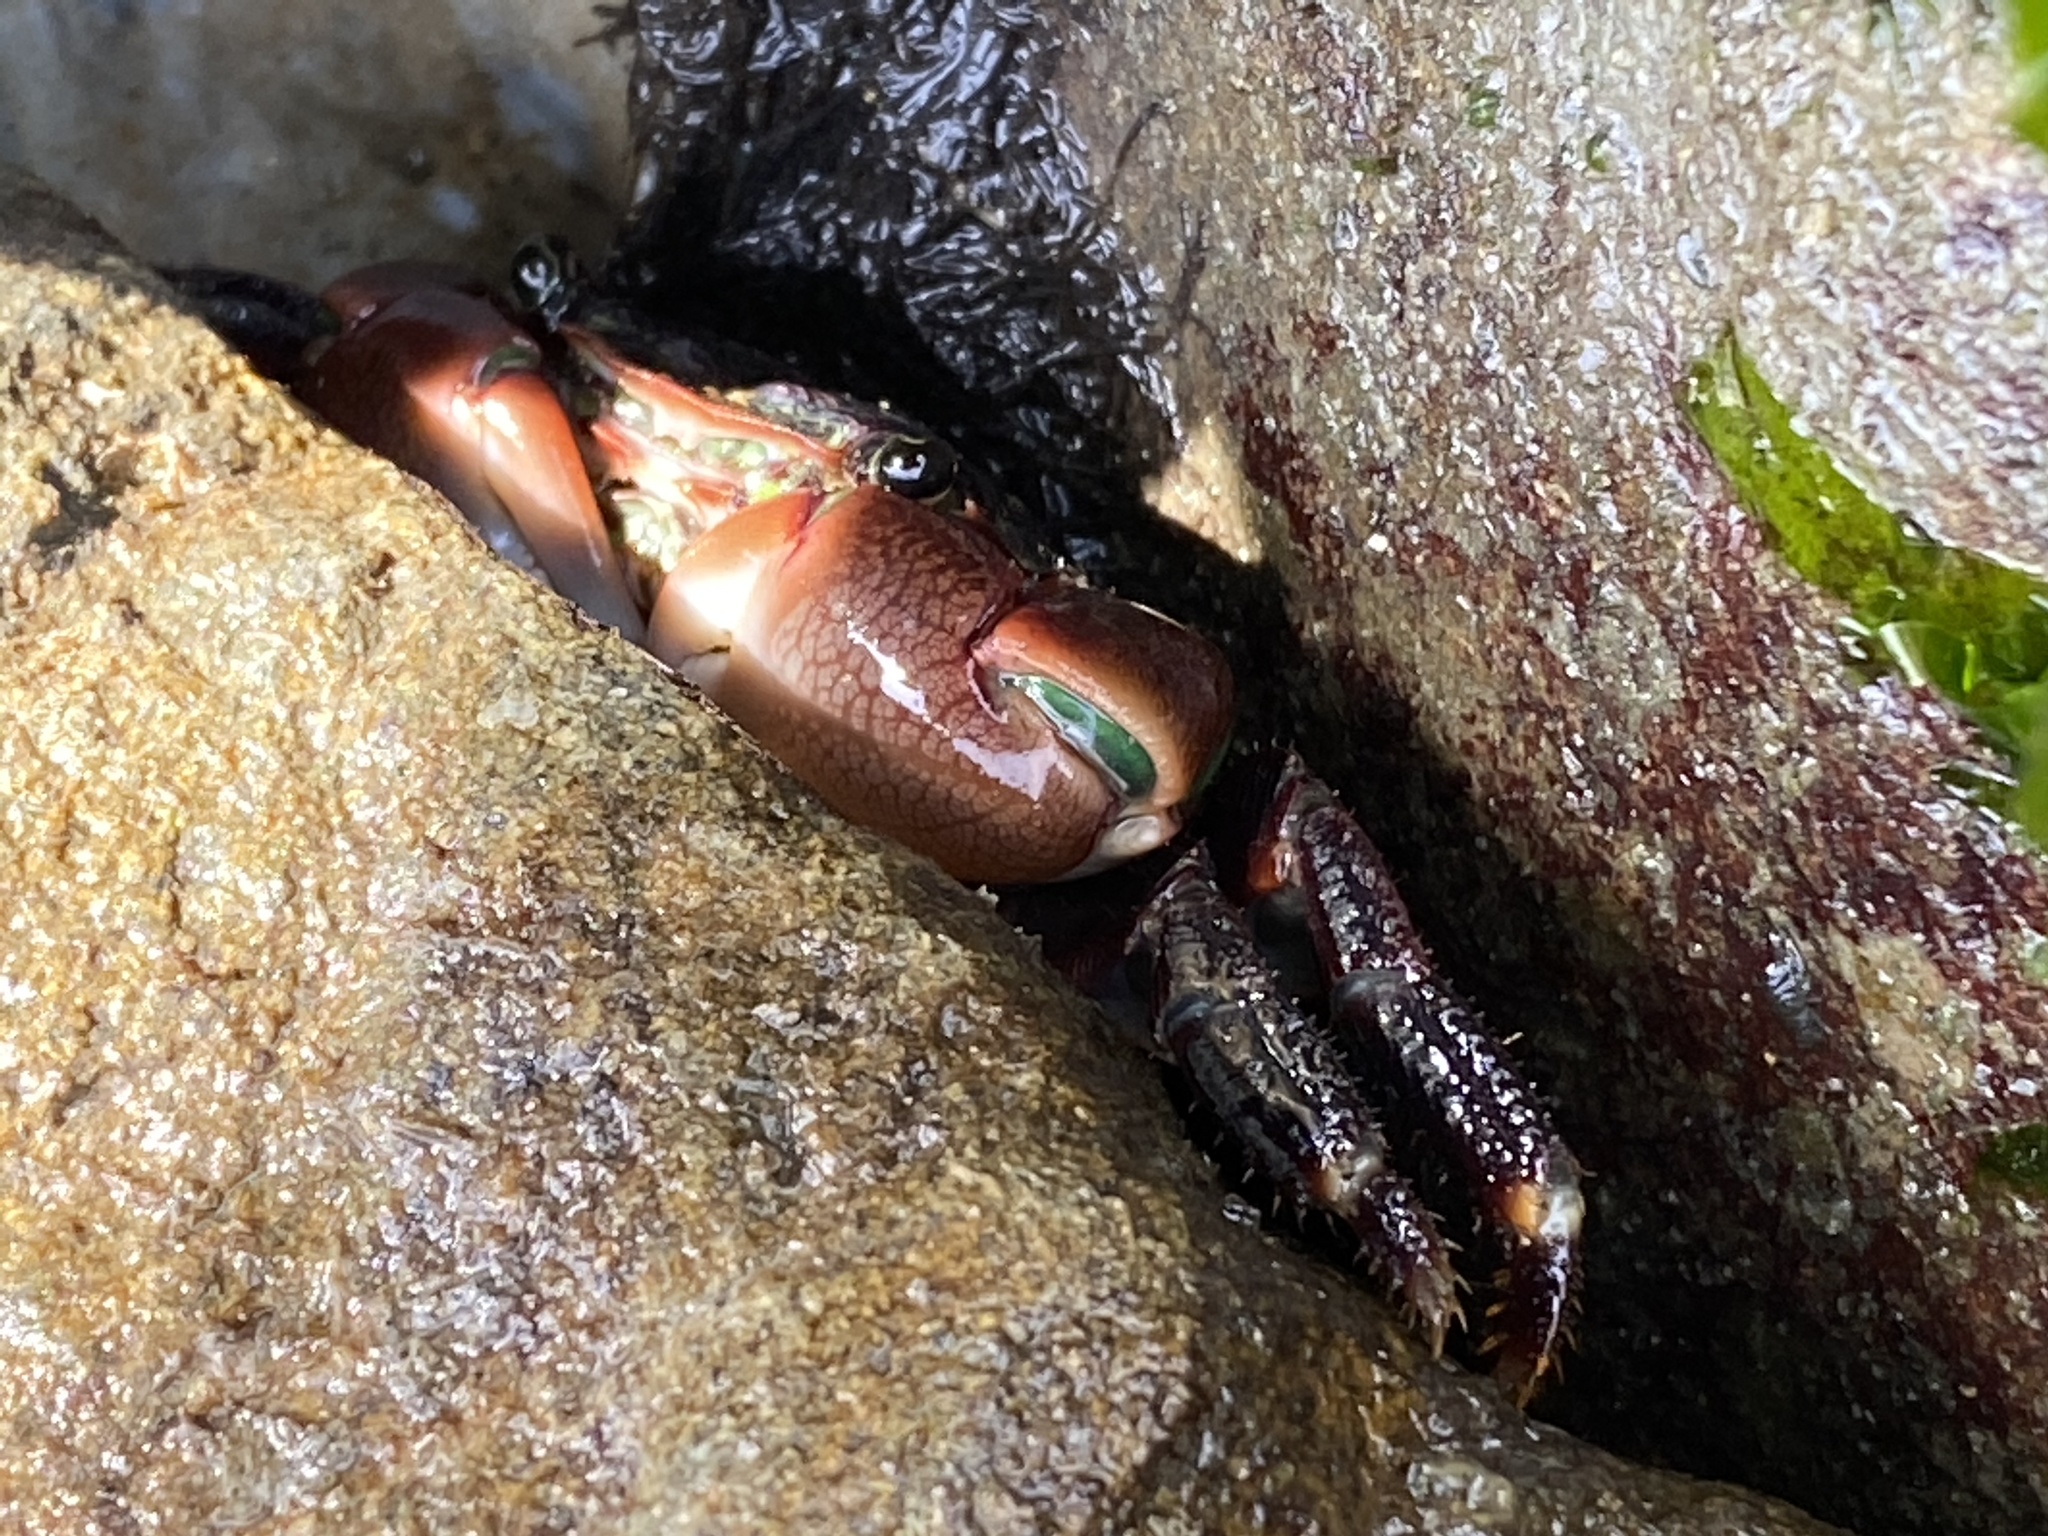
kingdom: Animalia
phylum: Arthropoda
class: Malacostraca
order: Decapoda
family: Grapsidae
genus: Pachygrapsus
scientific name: Pachygrapsus crassipes
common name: Striped shore crab
